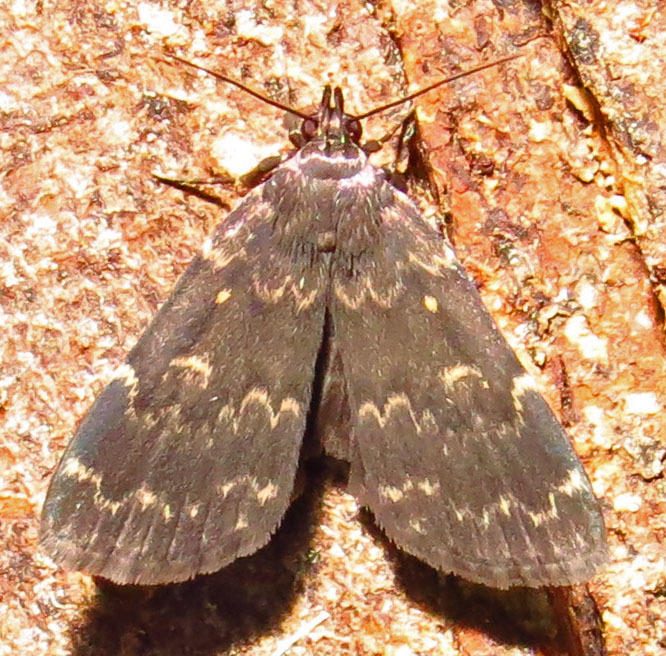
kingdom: Animalia
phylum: Arthropoda
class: Insecta
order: Lepidoptera
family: Erebidae
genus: Idia
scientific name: Idia lubricalis
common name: Twin-striped tabby
